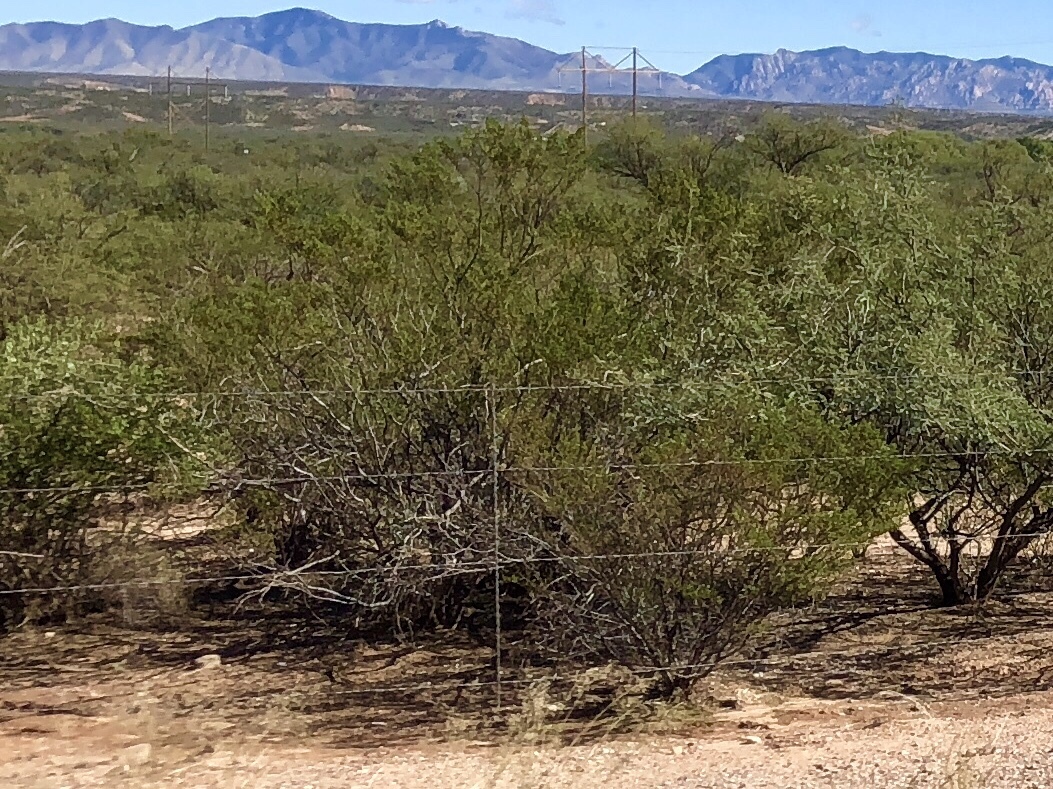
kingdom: Plantae
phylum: Tracheophyta
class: Magnoliopsida
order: Zygophyllales
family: Zygophyllaceae
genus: Larrea
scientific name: Larrea tridentata
